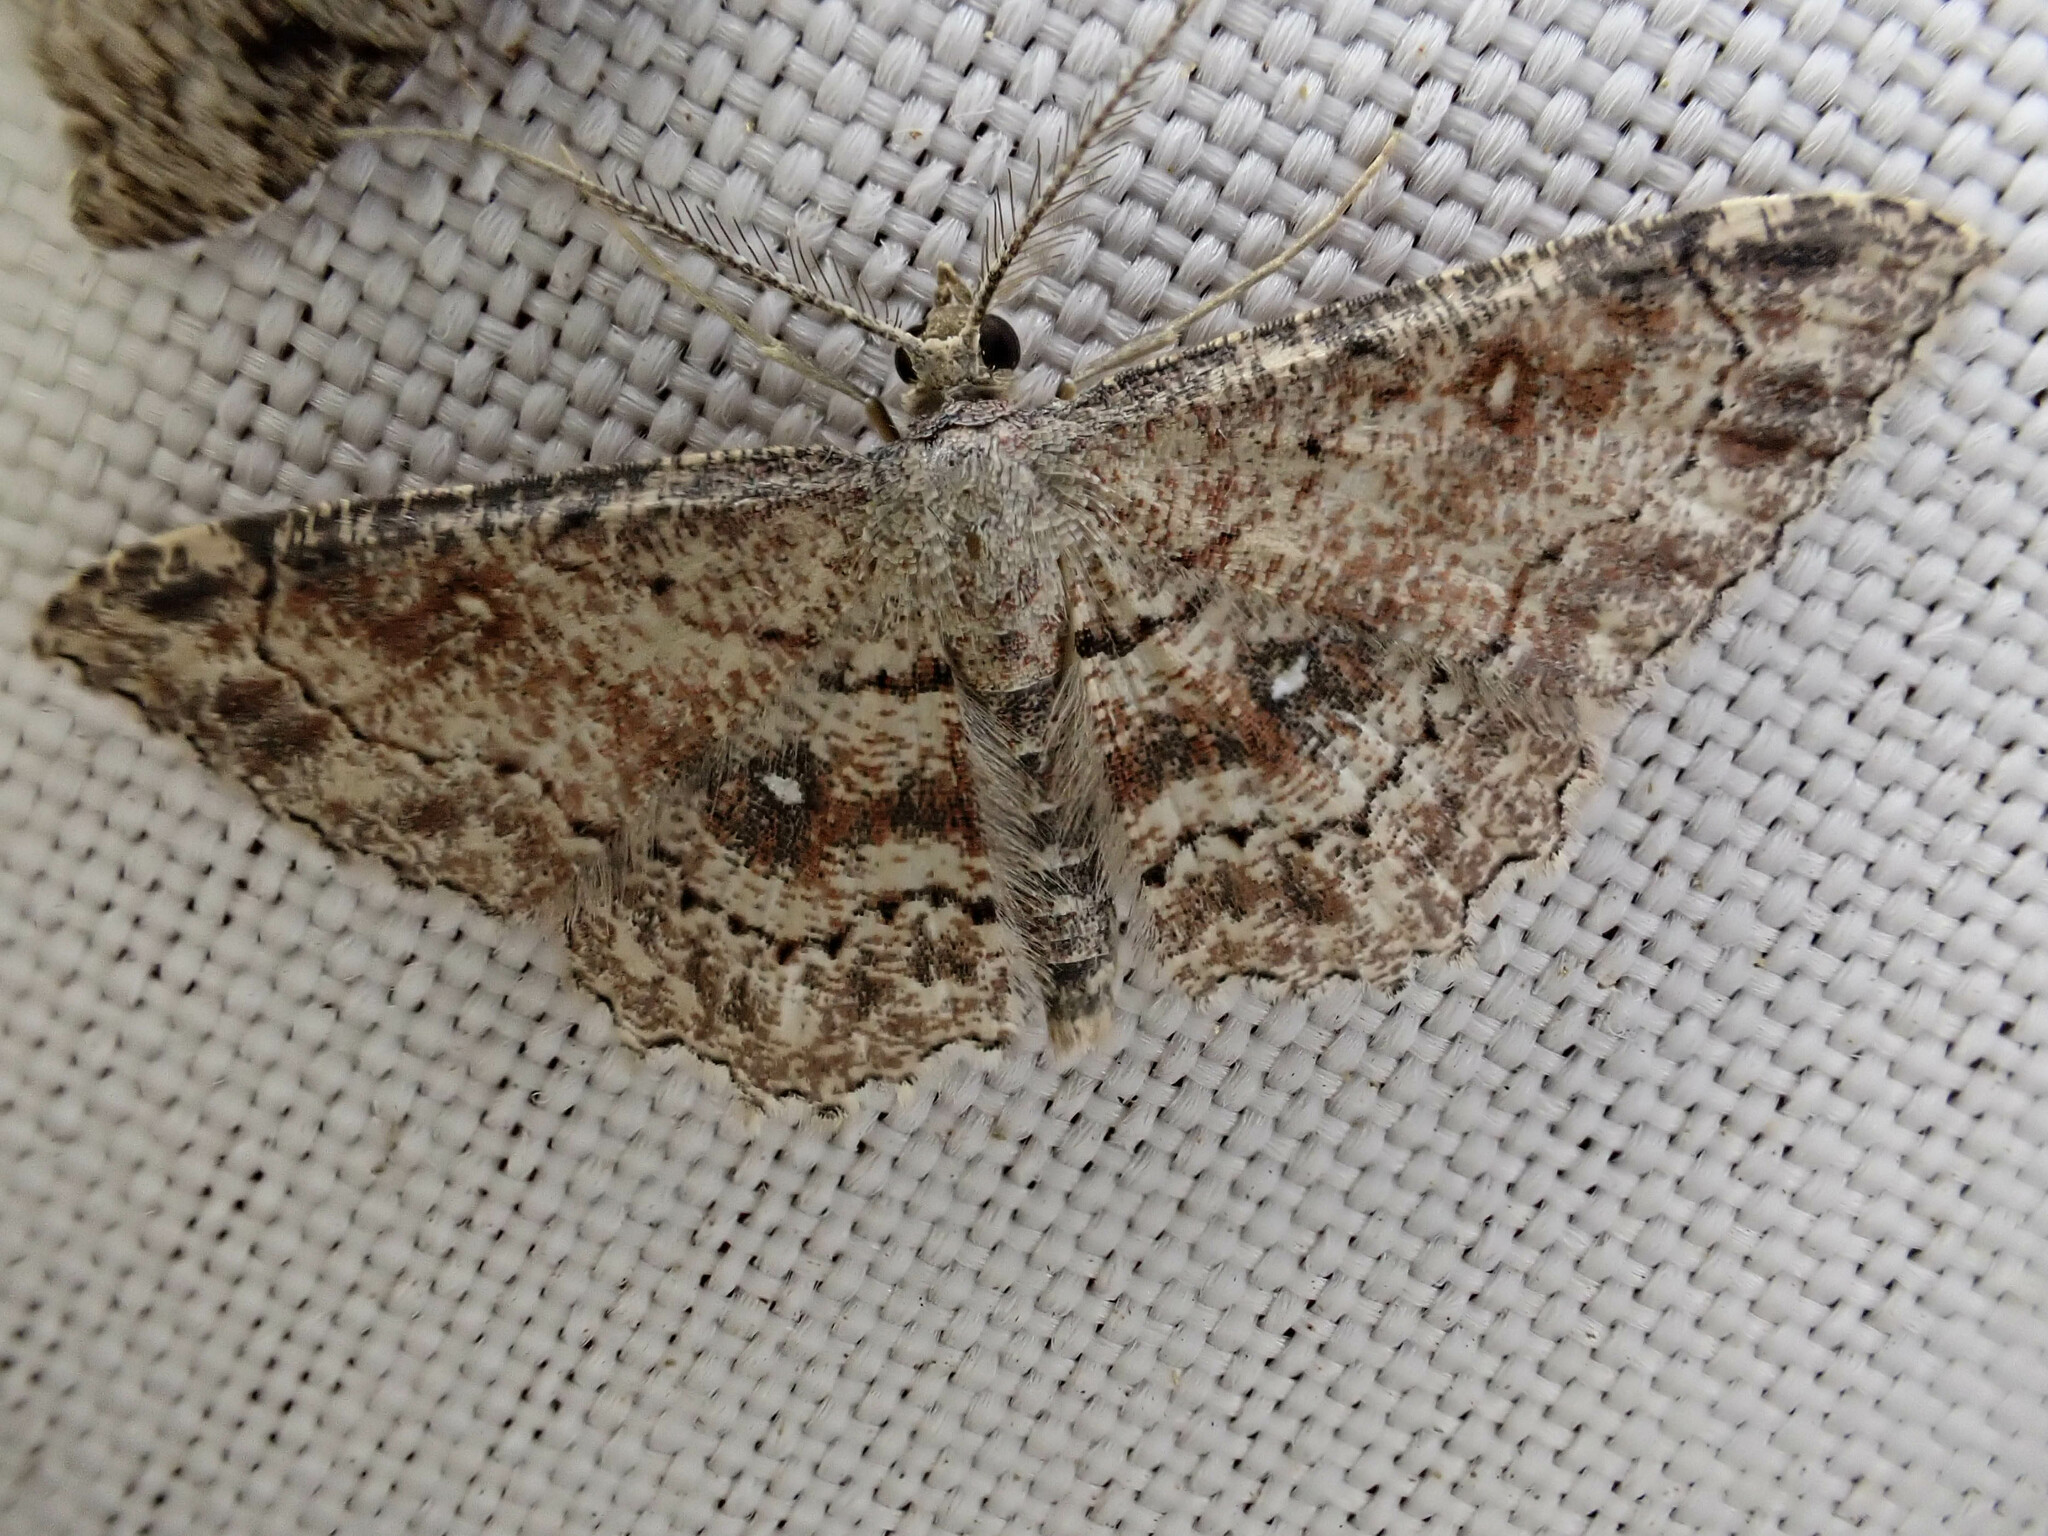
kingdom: Animalia
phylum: Arthropoda
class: Insecta
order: Lepidoptera
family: Geometridae
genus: Cyclophora
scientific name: Cyclophora nanaria
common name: Cankerworm
